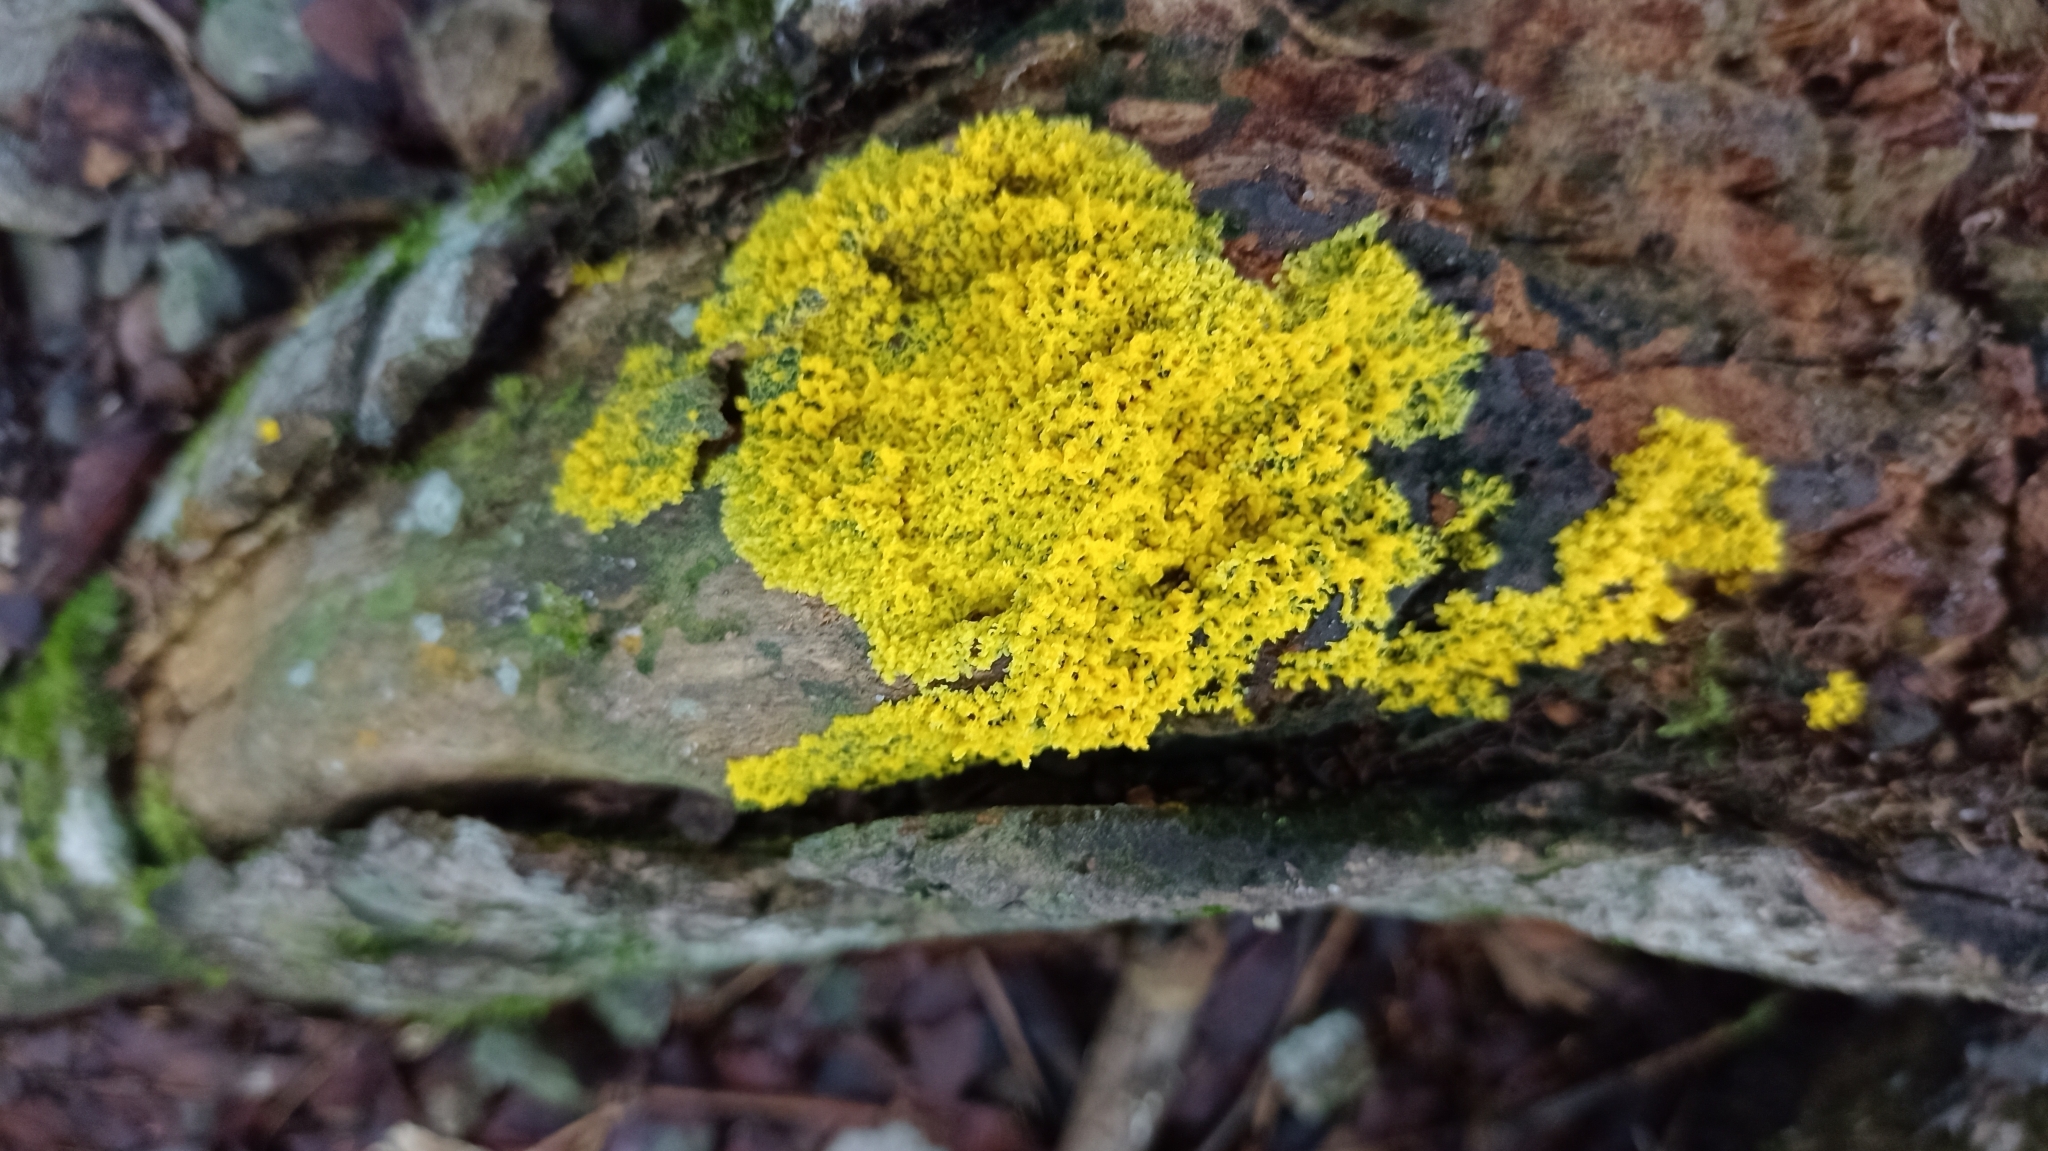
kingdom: Protozoa
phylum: Mycetozoa
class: Myxomycetes
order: Physarales
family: Physaraceae
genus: Fuligo
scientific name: Fuligo septica
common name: Dog vomit slime mold
